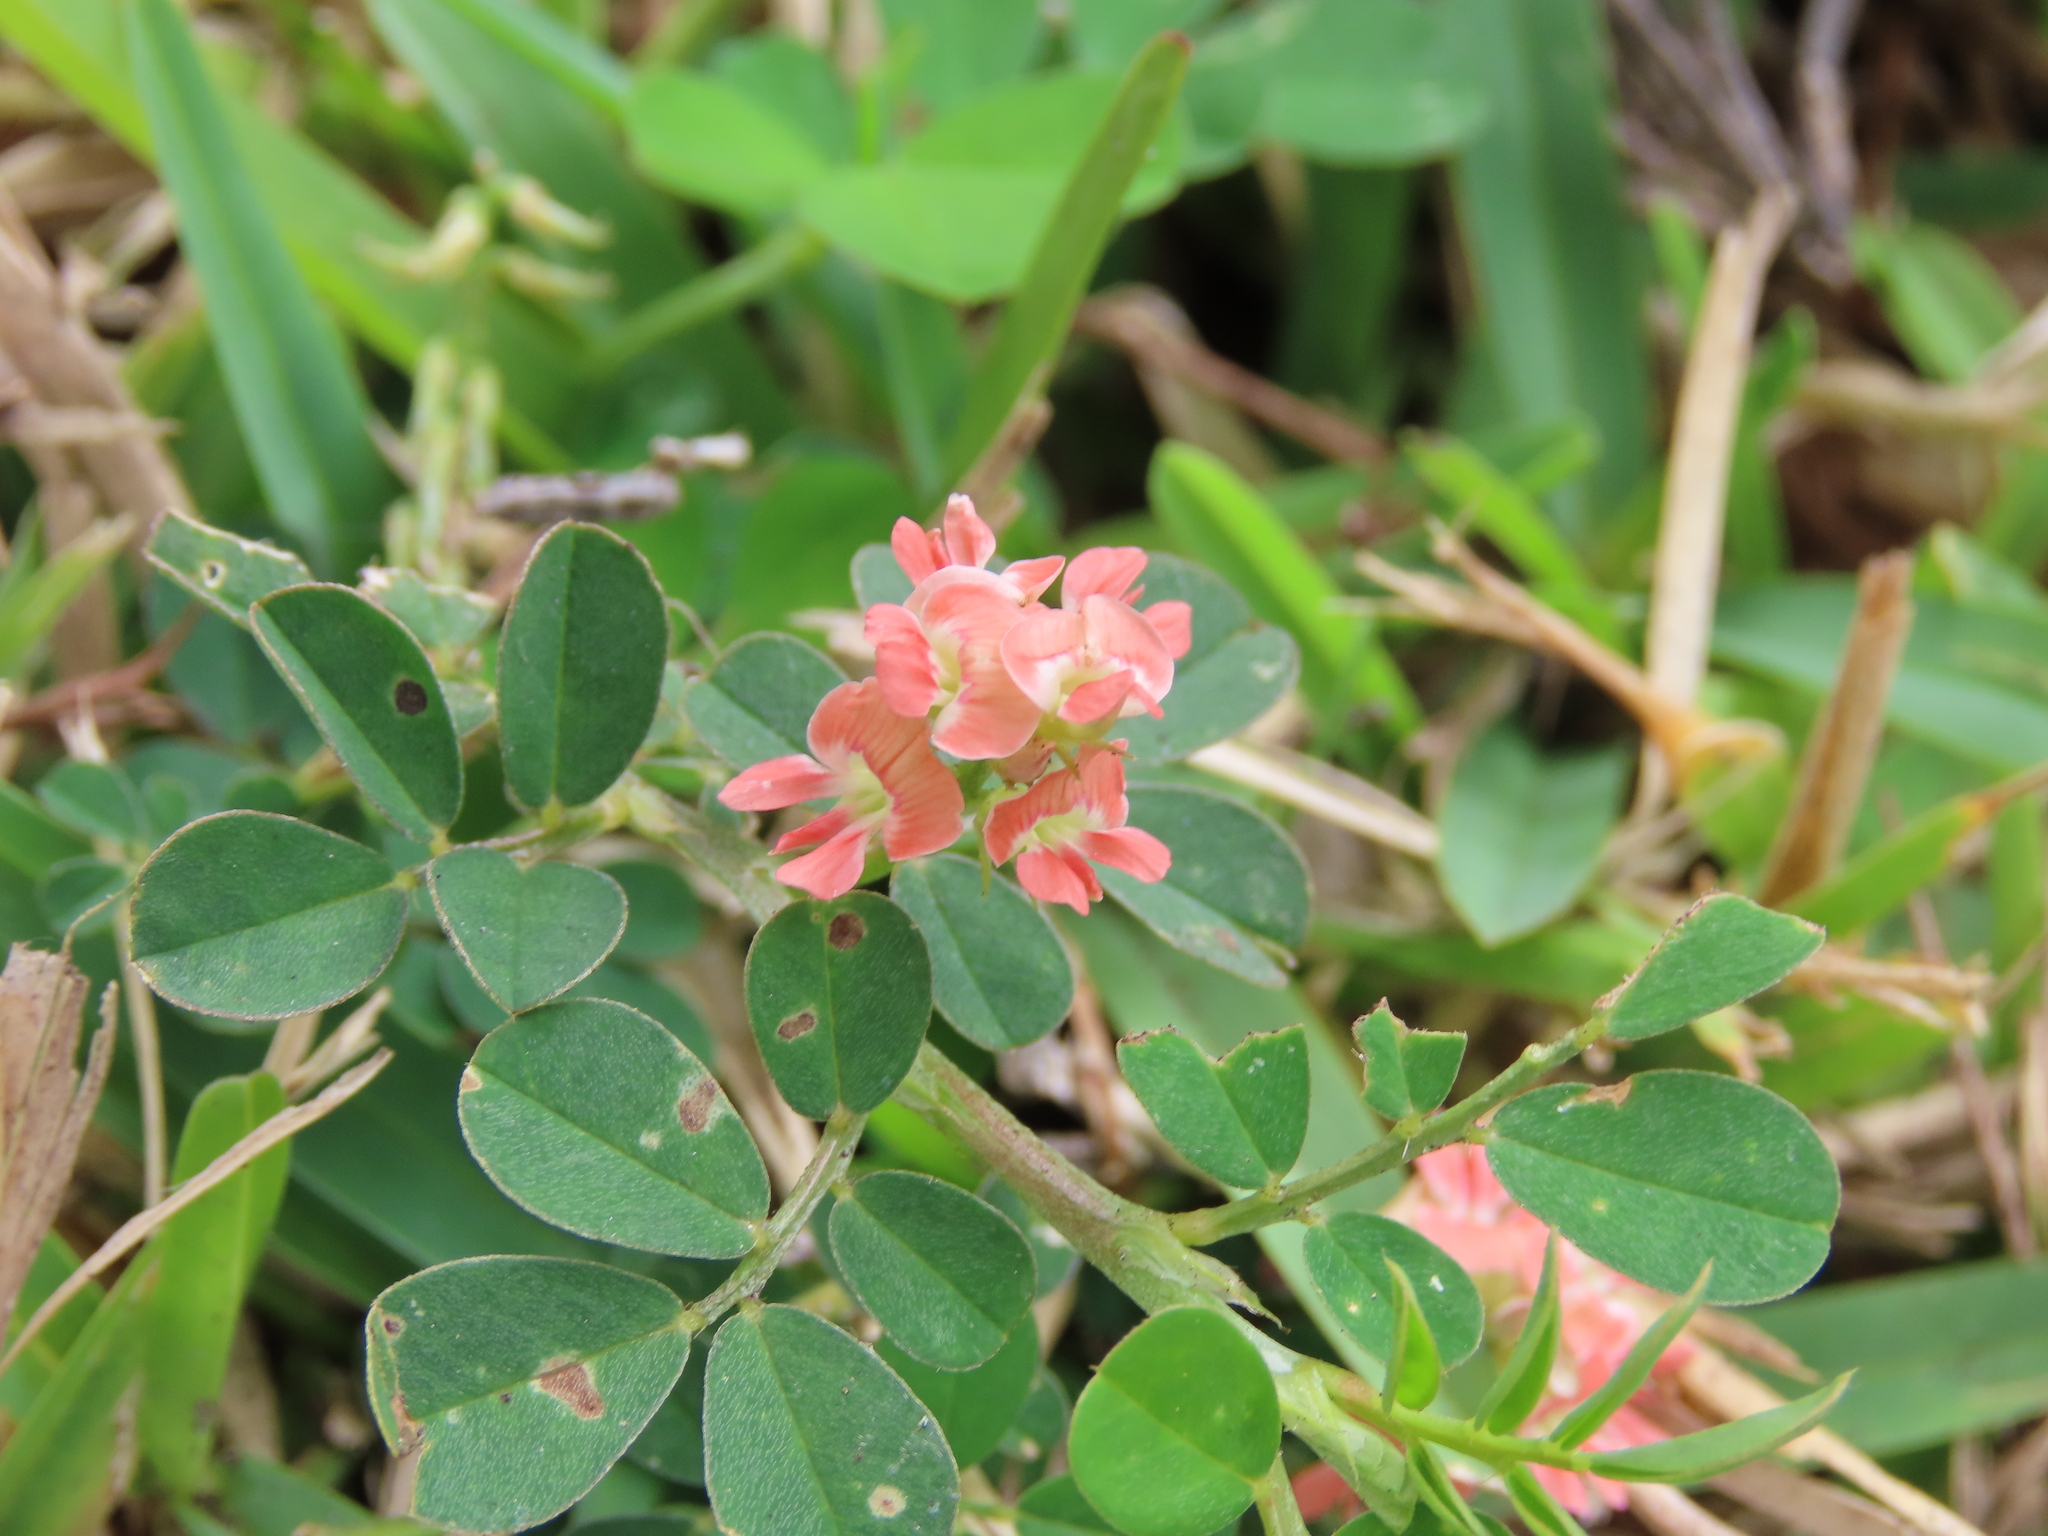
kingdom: Plantae
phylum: Tracheophyta
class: Magnoliopsida
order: Fabales
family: Fabaceae
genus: Indigofera
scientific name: Indigofera spicata
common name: Creeping indigo
